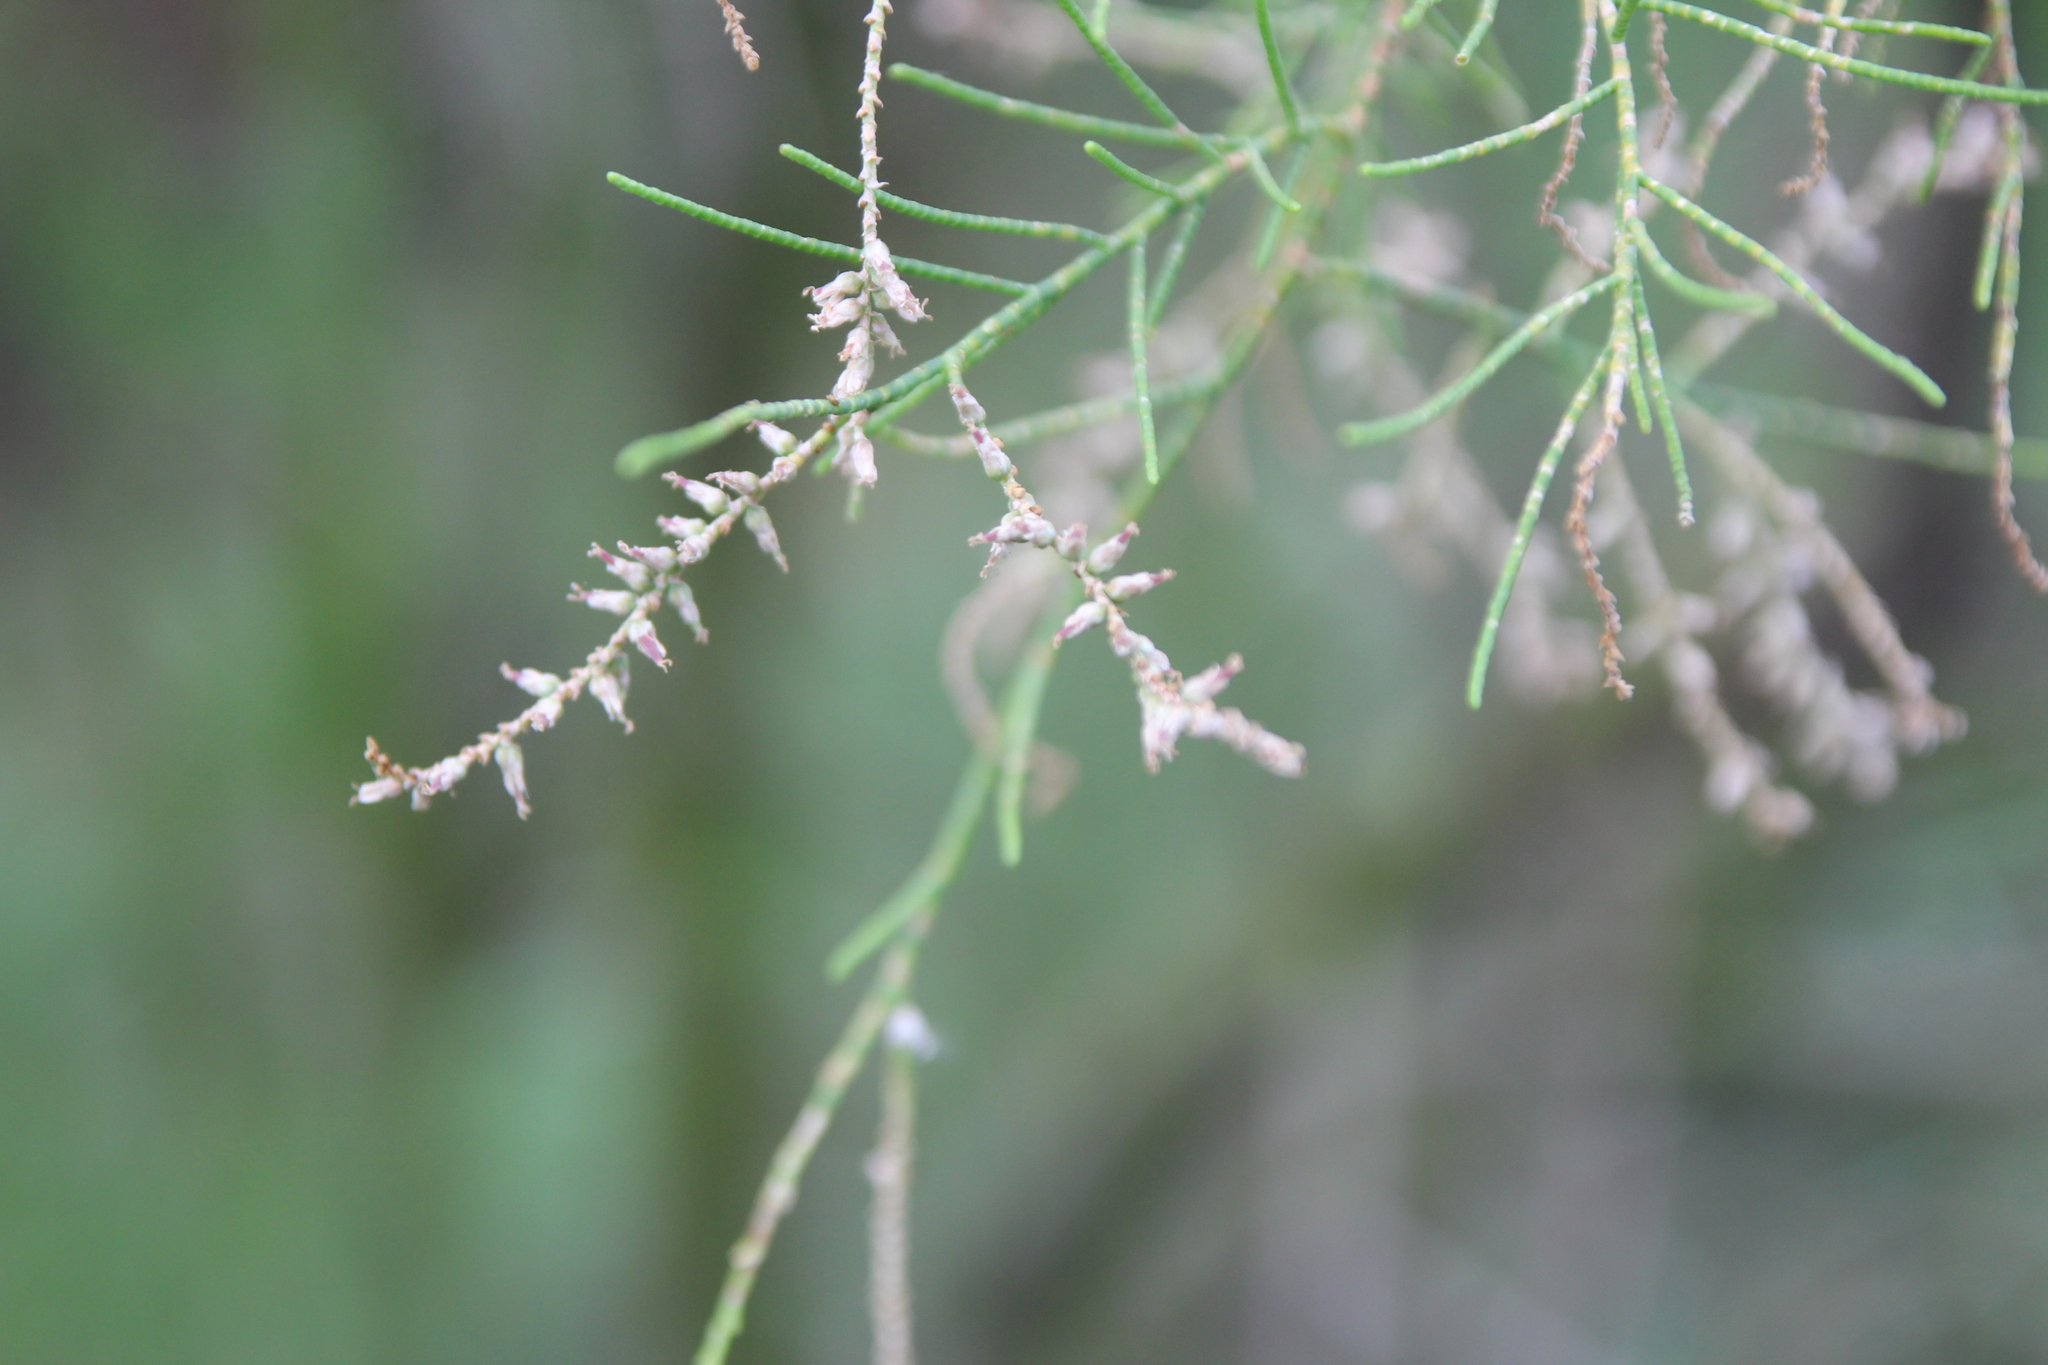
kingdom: Plantae
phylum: Tracheophyta
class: Magnoliopsida
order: Caryophyllales
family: Tamaricaceae
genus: Tamarix
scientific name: Tamarix aphylla
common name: Athel tamarisk
